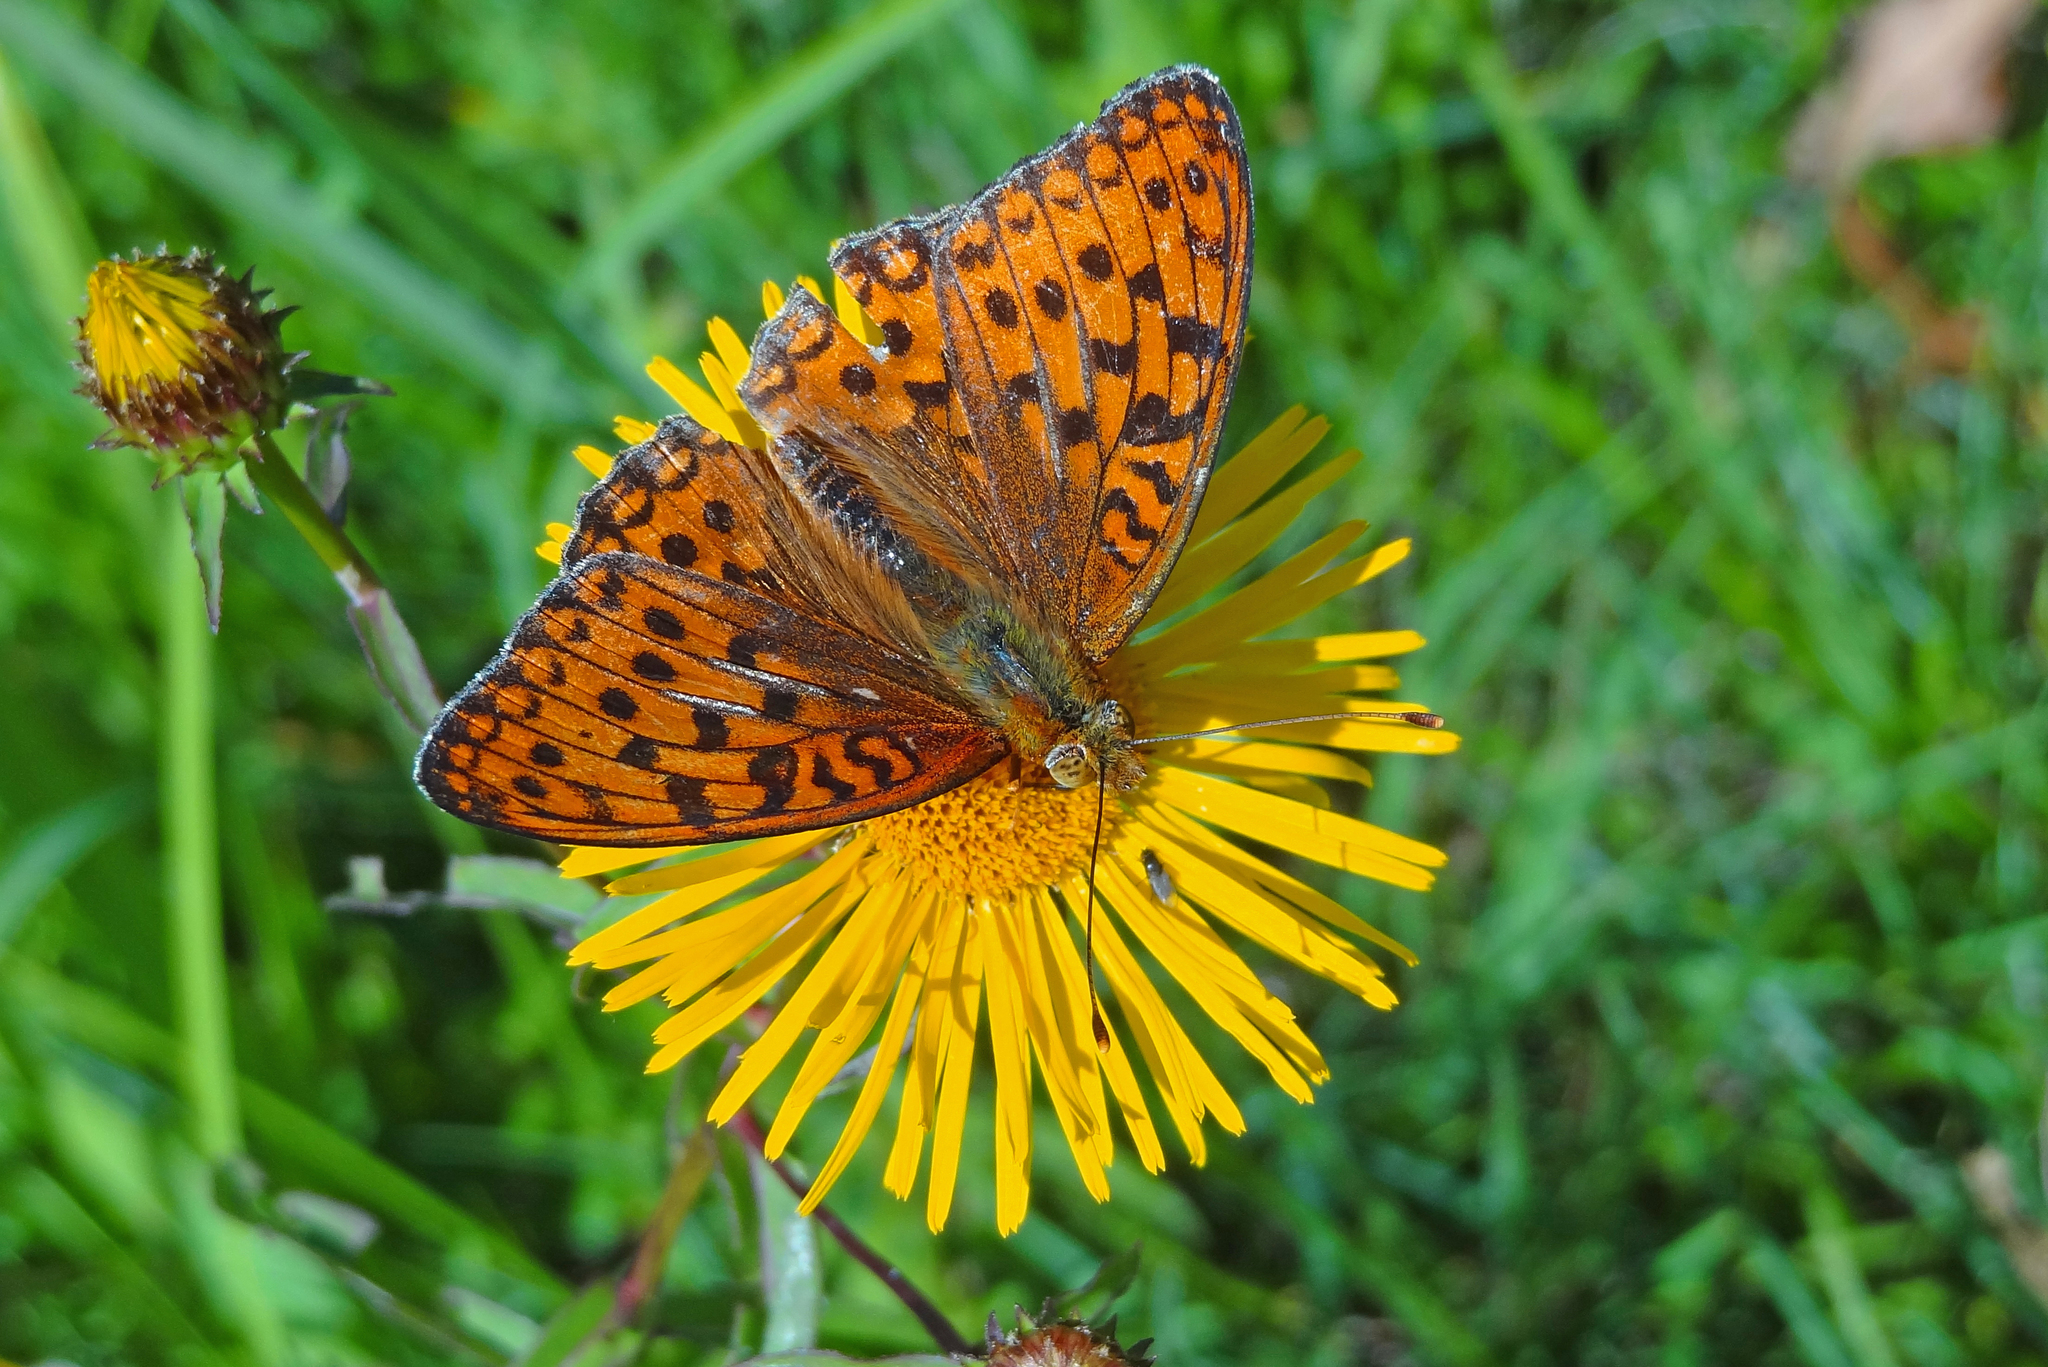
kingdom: Animalia
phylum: Arthropoda
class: Insecta
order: Lepidoptera
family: Nymphalidae
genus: Fabriciana
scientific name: Fabriciana adippe
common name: High brown fritillary
